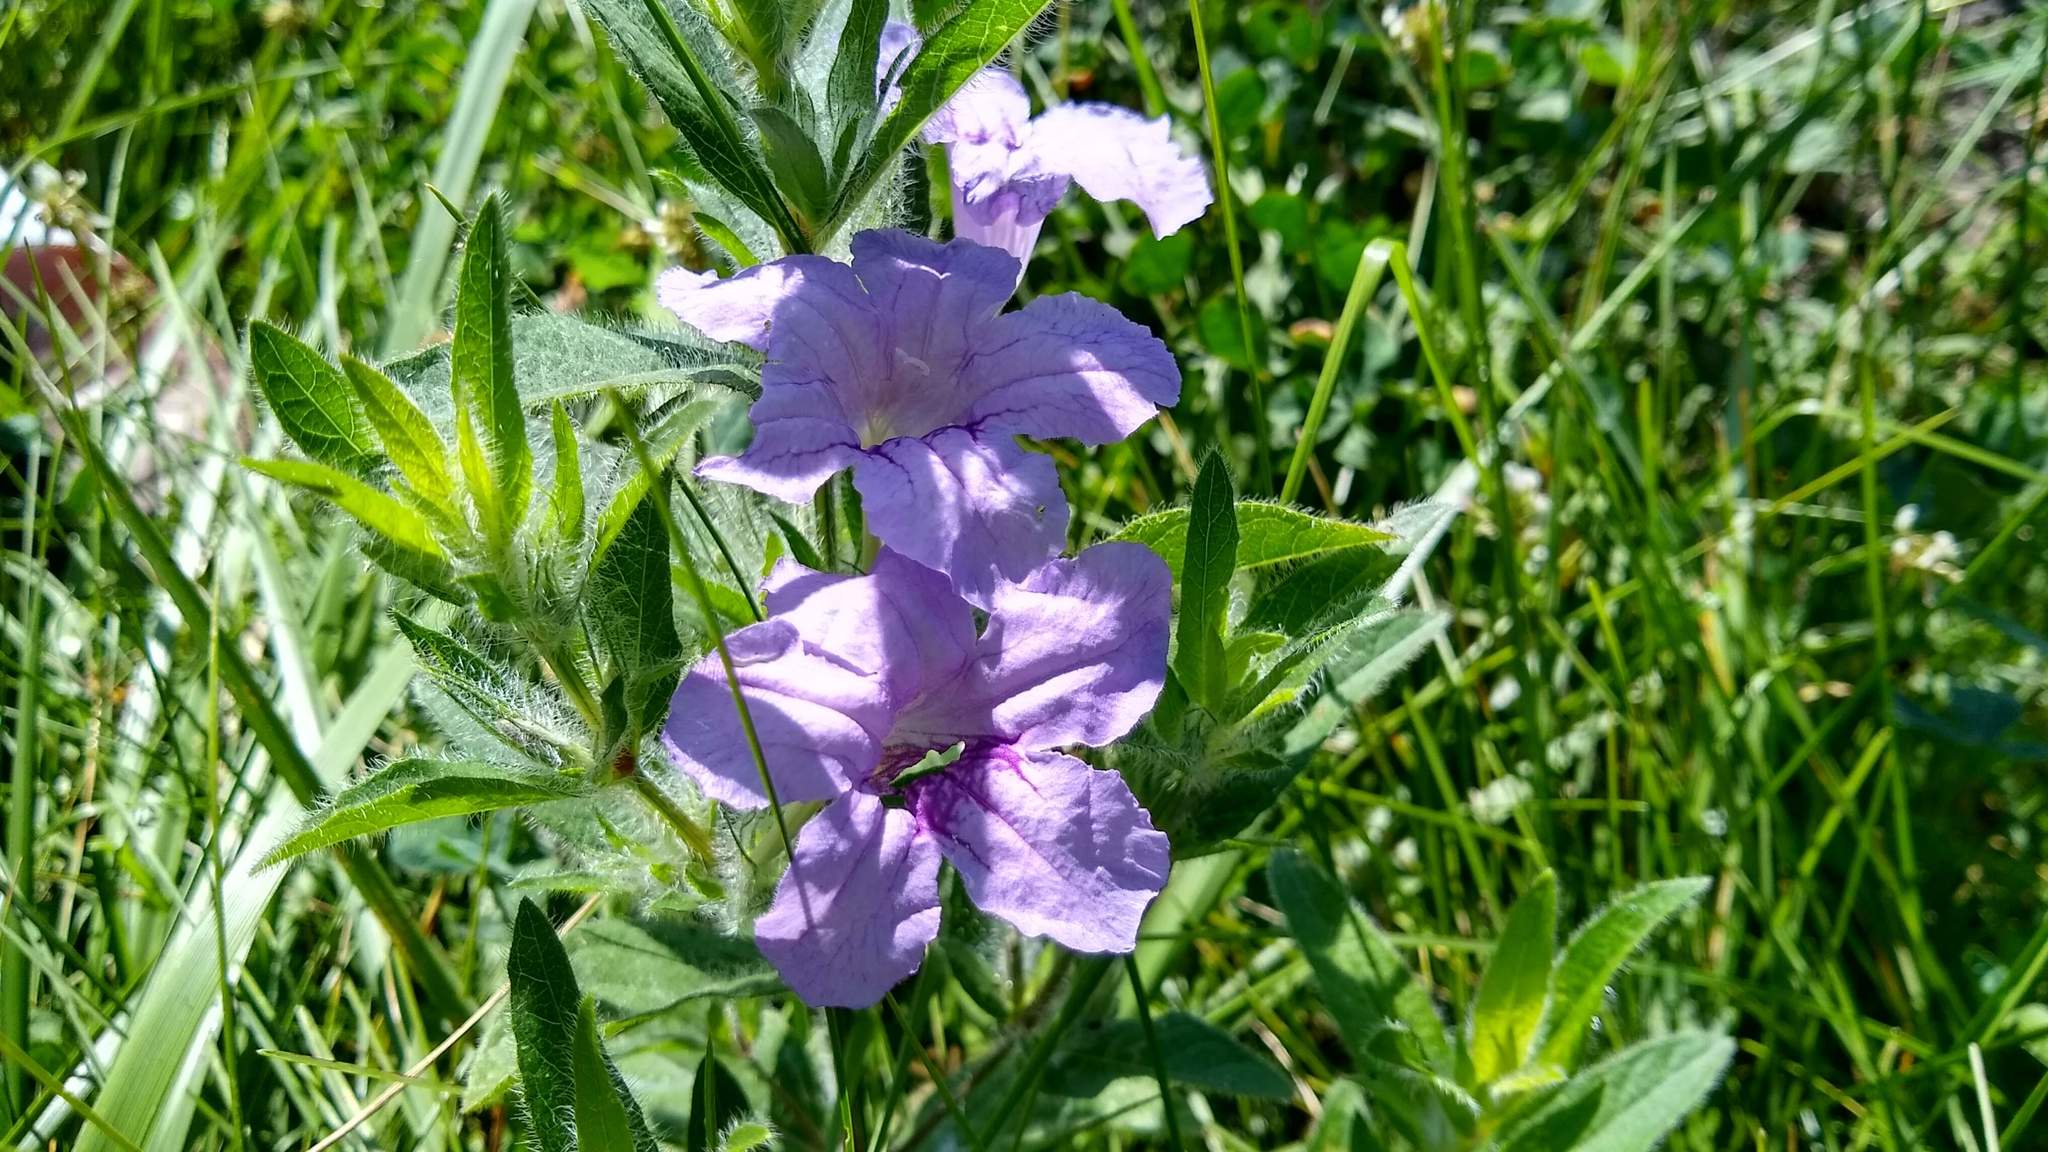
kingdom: Plantae
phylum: Tracheophyta
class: Magnoliopsida
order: Lamiales
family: Acanthaceae
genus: Ruellia
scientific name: Ruellia humilis
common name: Fringe-leaf ruellia
